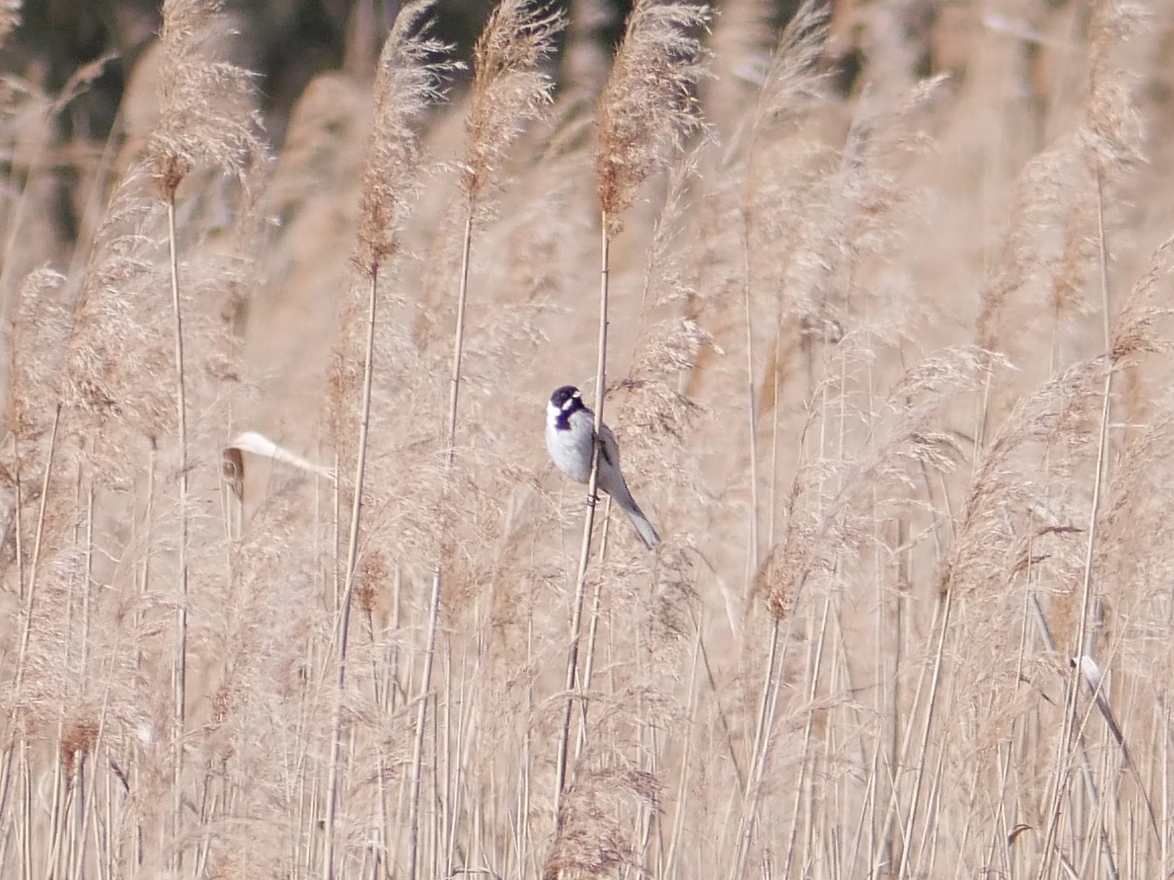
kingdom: Animalia
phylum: Chordata
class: Aves
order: Passeriformes
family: Emberizidae
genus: Emberiza
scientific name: Emberiza schoeniclus
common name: Reed bunting
